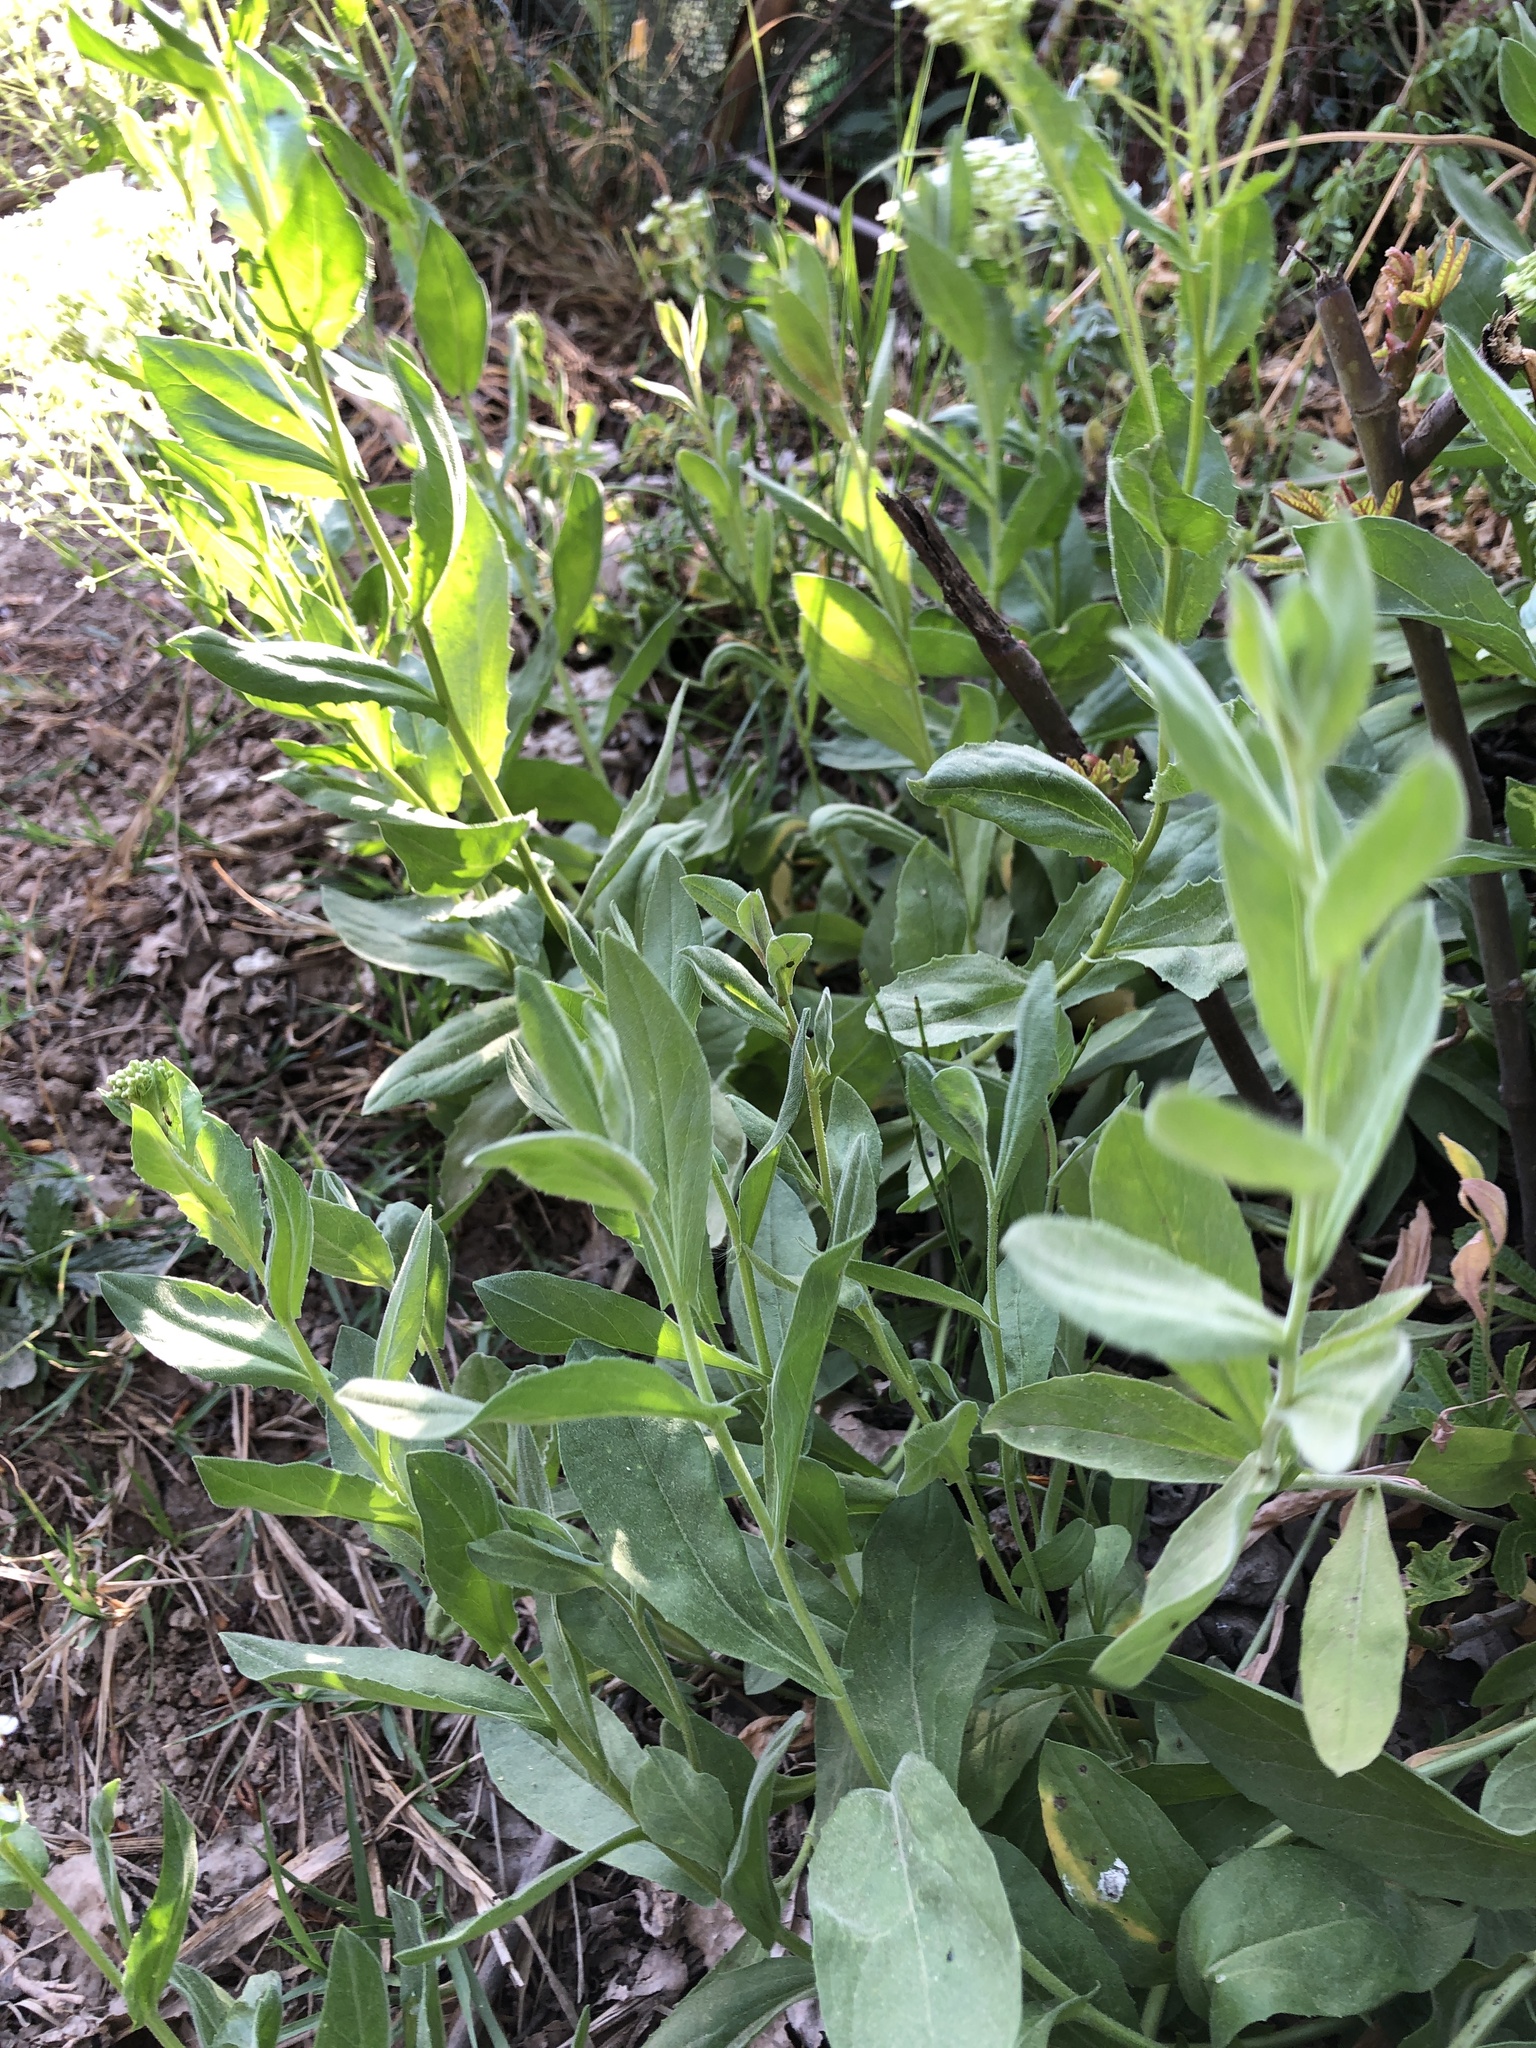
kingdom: Plantae
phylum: Tracheophyta
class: Magnoliopsida
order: Brassicales
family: Brassicaceae
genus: Lepidium
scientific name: Lepidium draba
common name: Hoary cress
